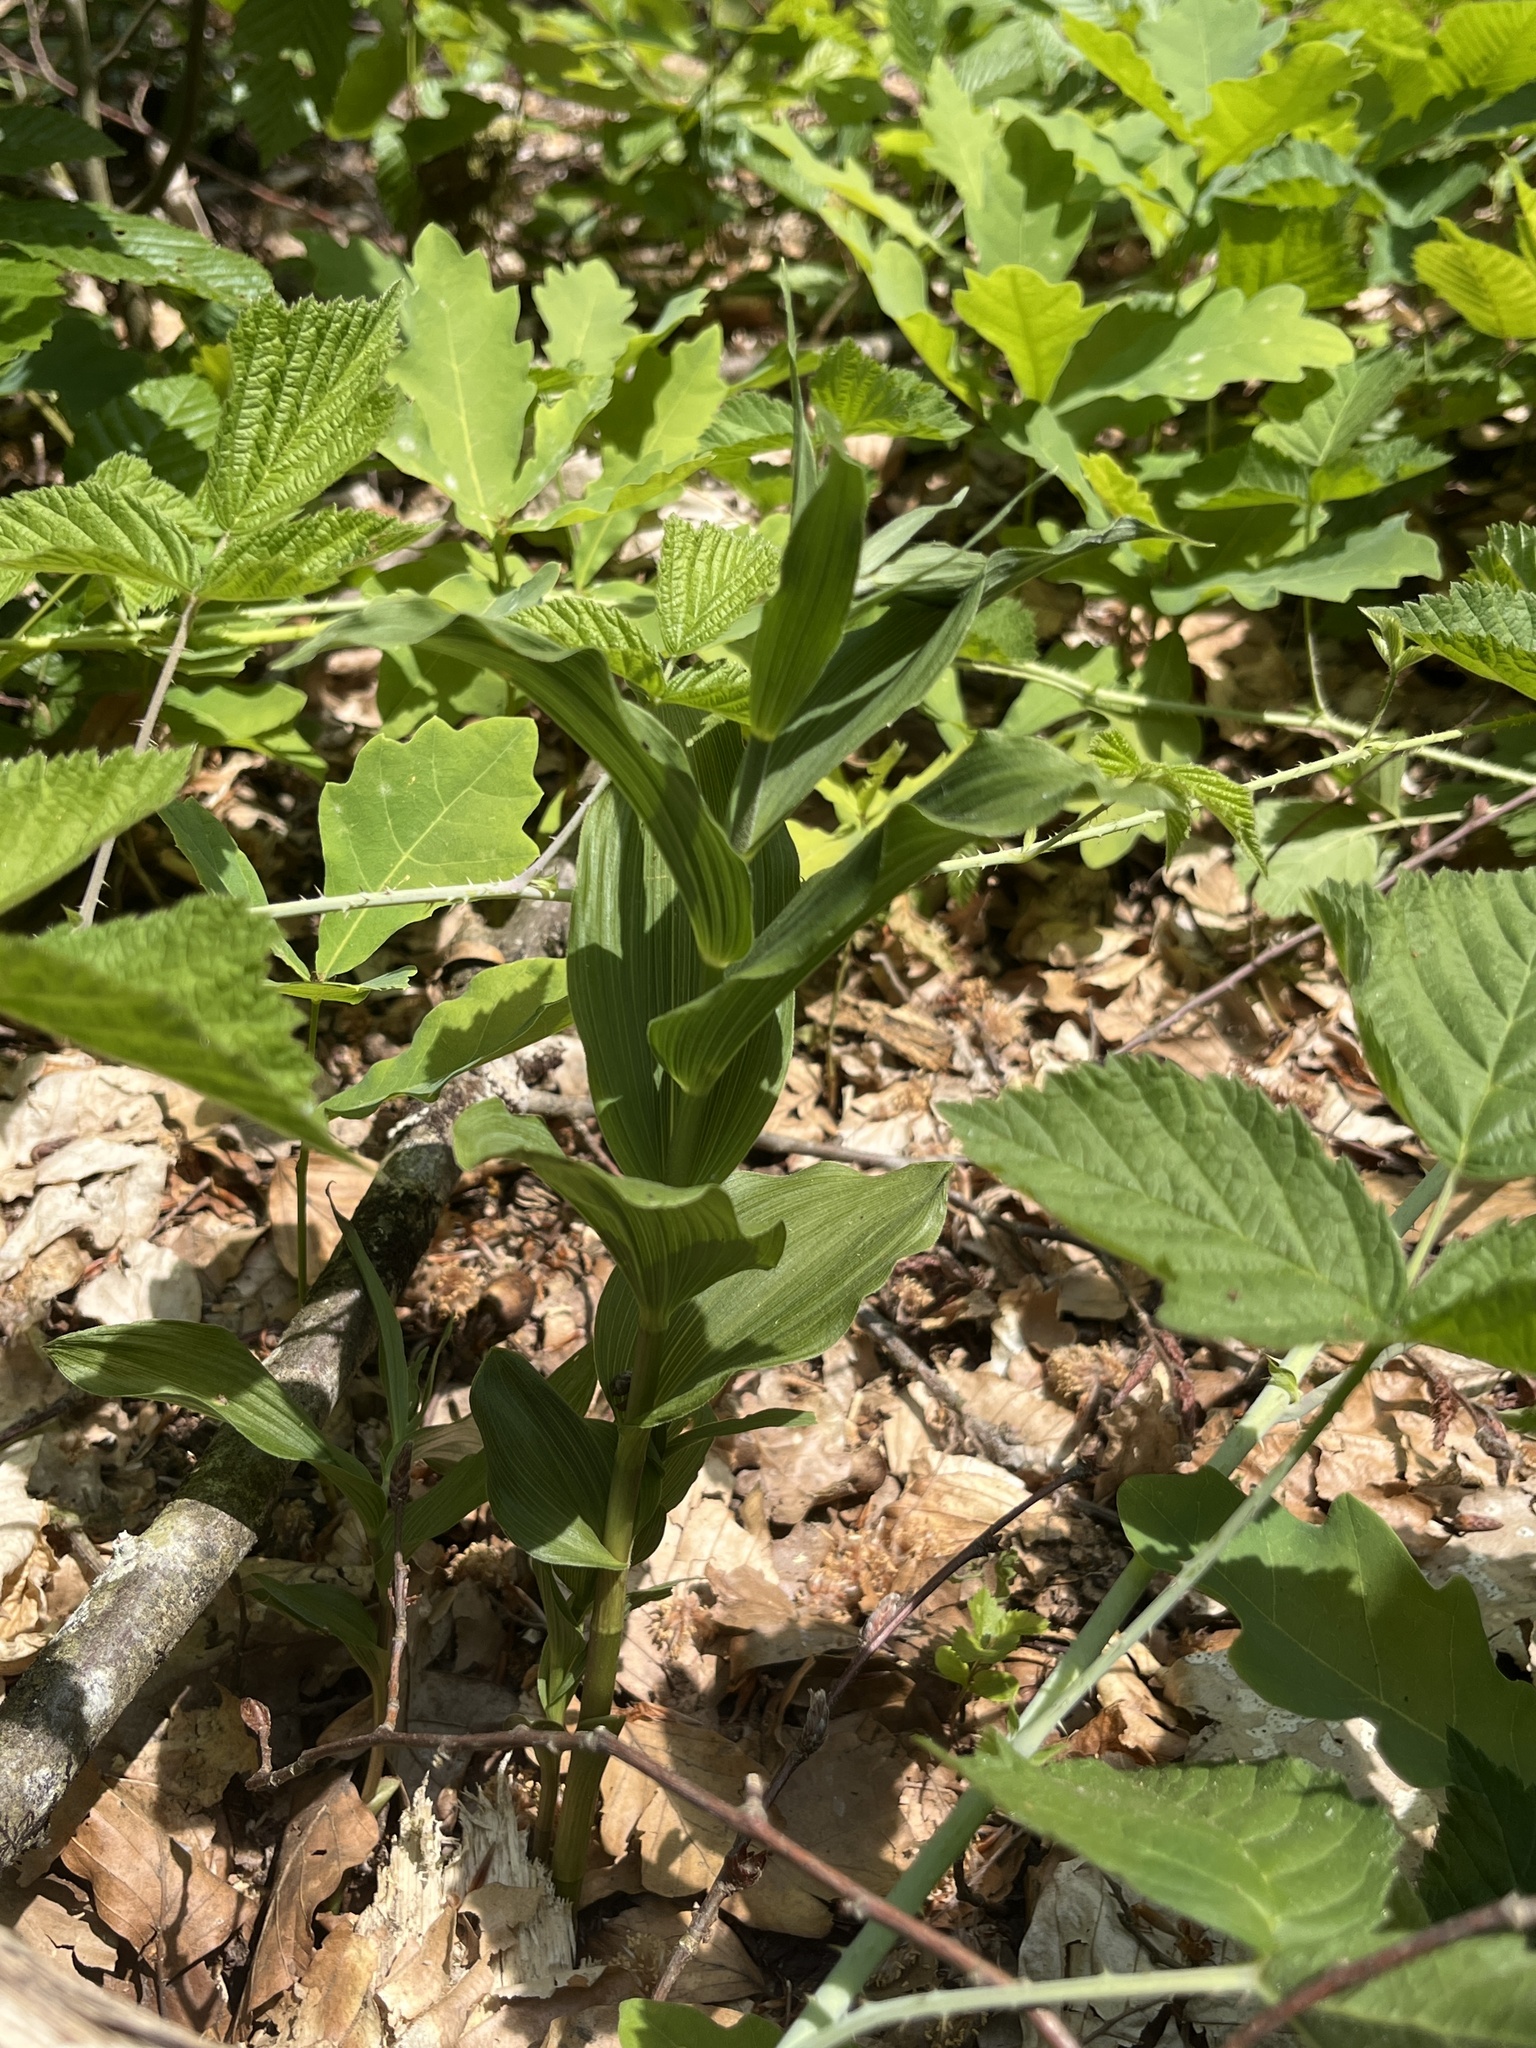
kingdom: Plantae
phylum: Tracheophyta
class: Liliopsida
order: Asparagales
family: Orchidaceae
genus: Epipactis
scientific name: Epipactis helleborine
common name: Broad-leaved helleborine
